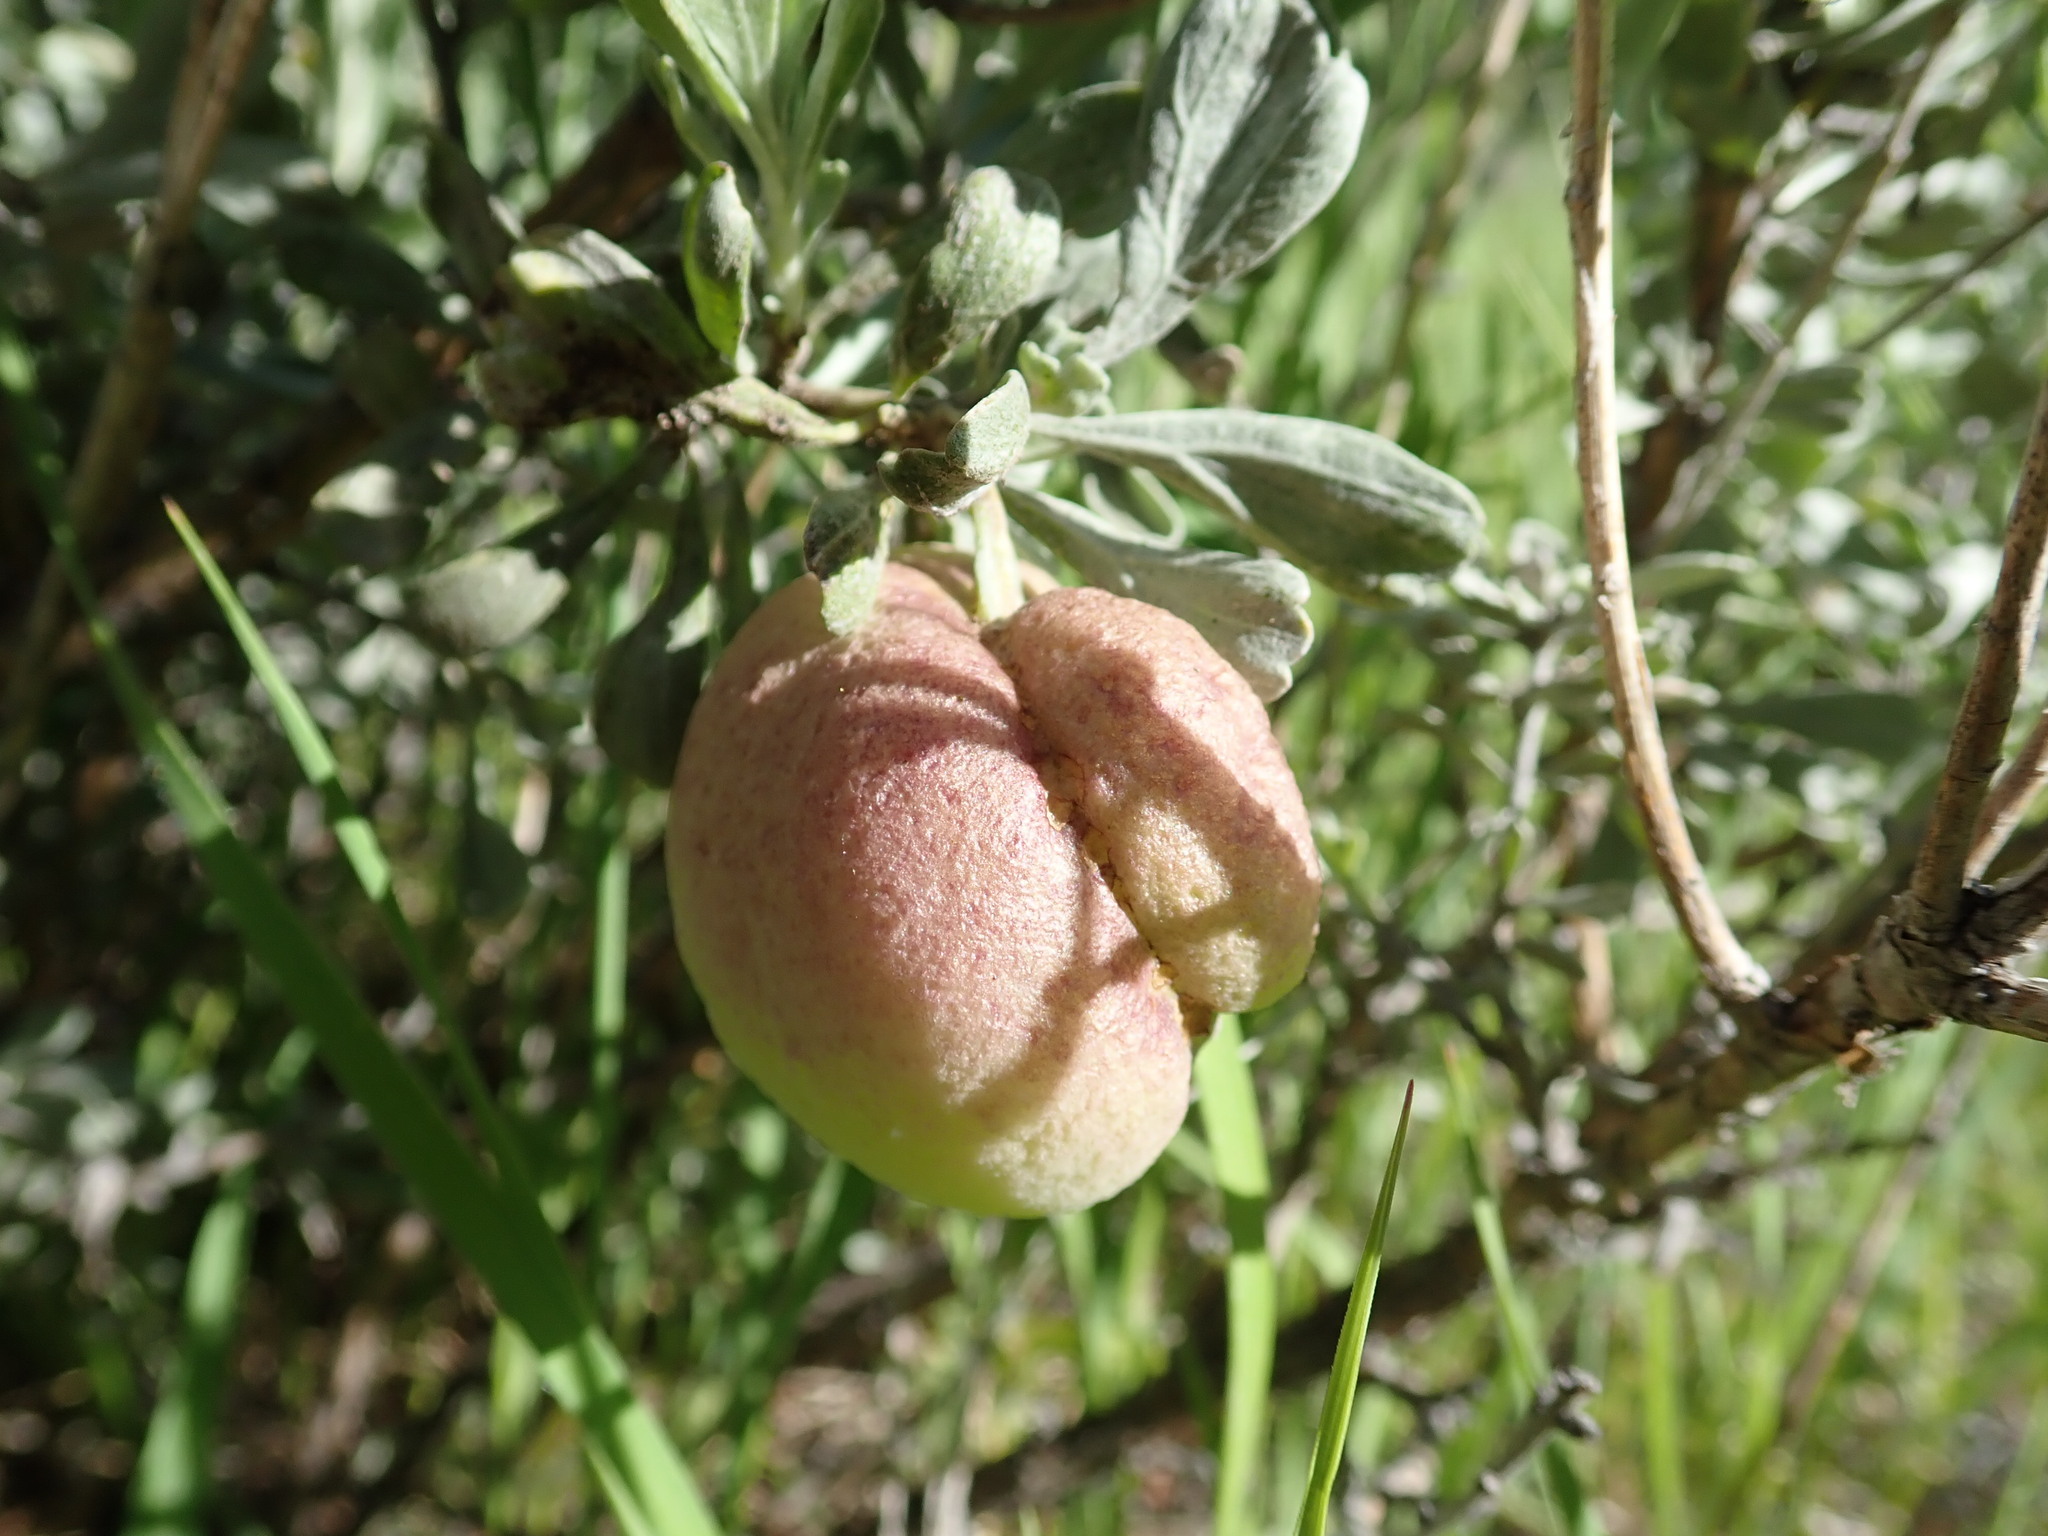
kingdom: Animalia
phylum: Arthropoda
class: Insecta
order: Diptera
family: Cecidomyiidae
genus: Rhopalomyia
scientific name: Rhopalomyia pomum
